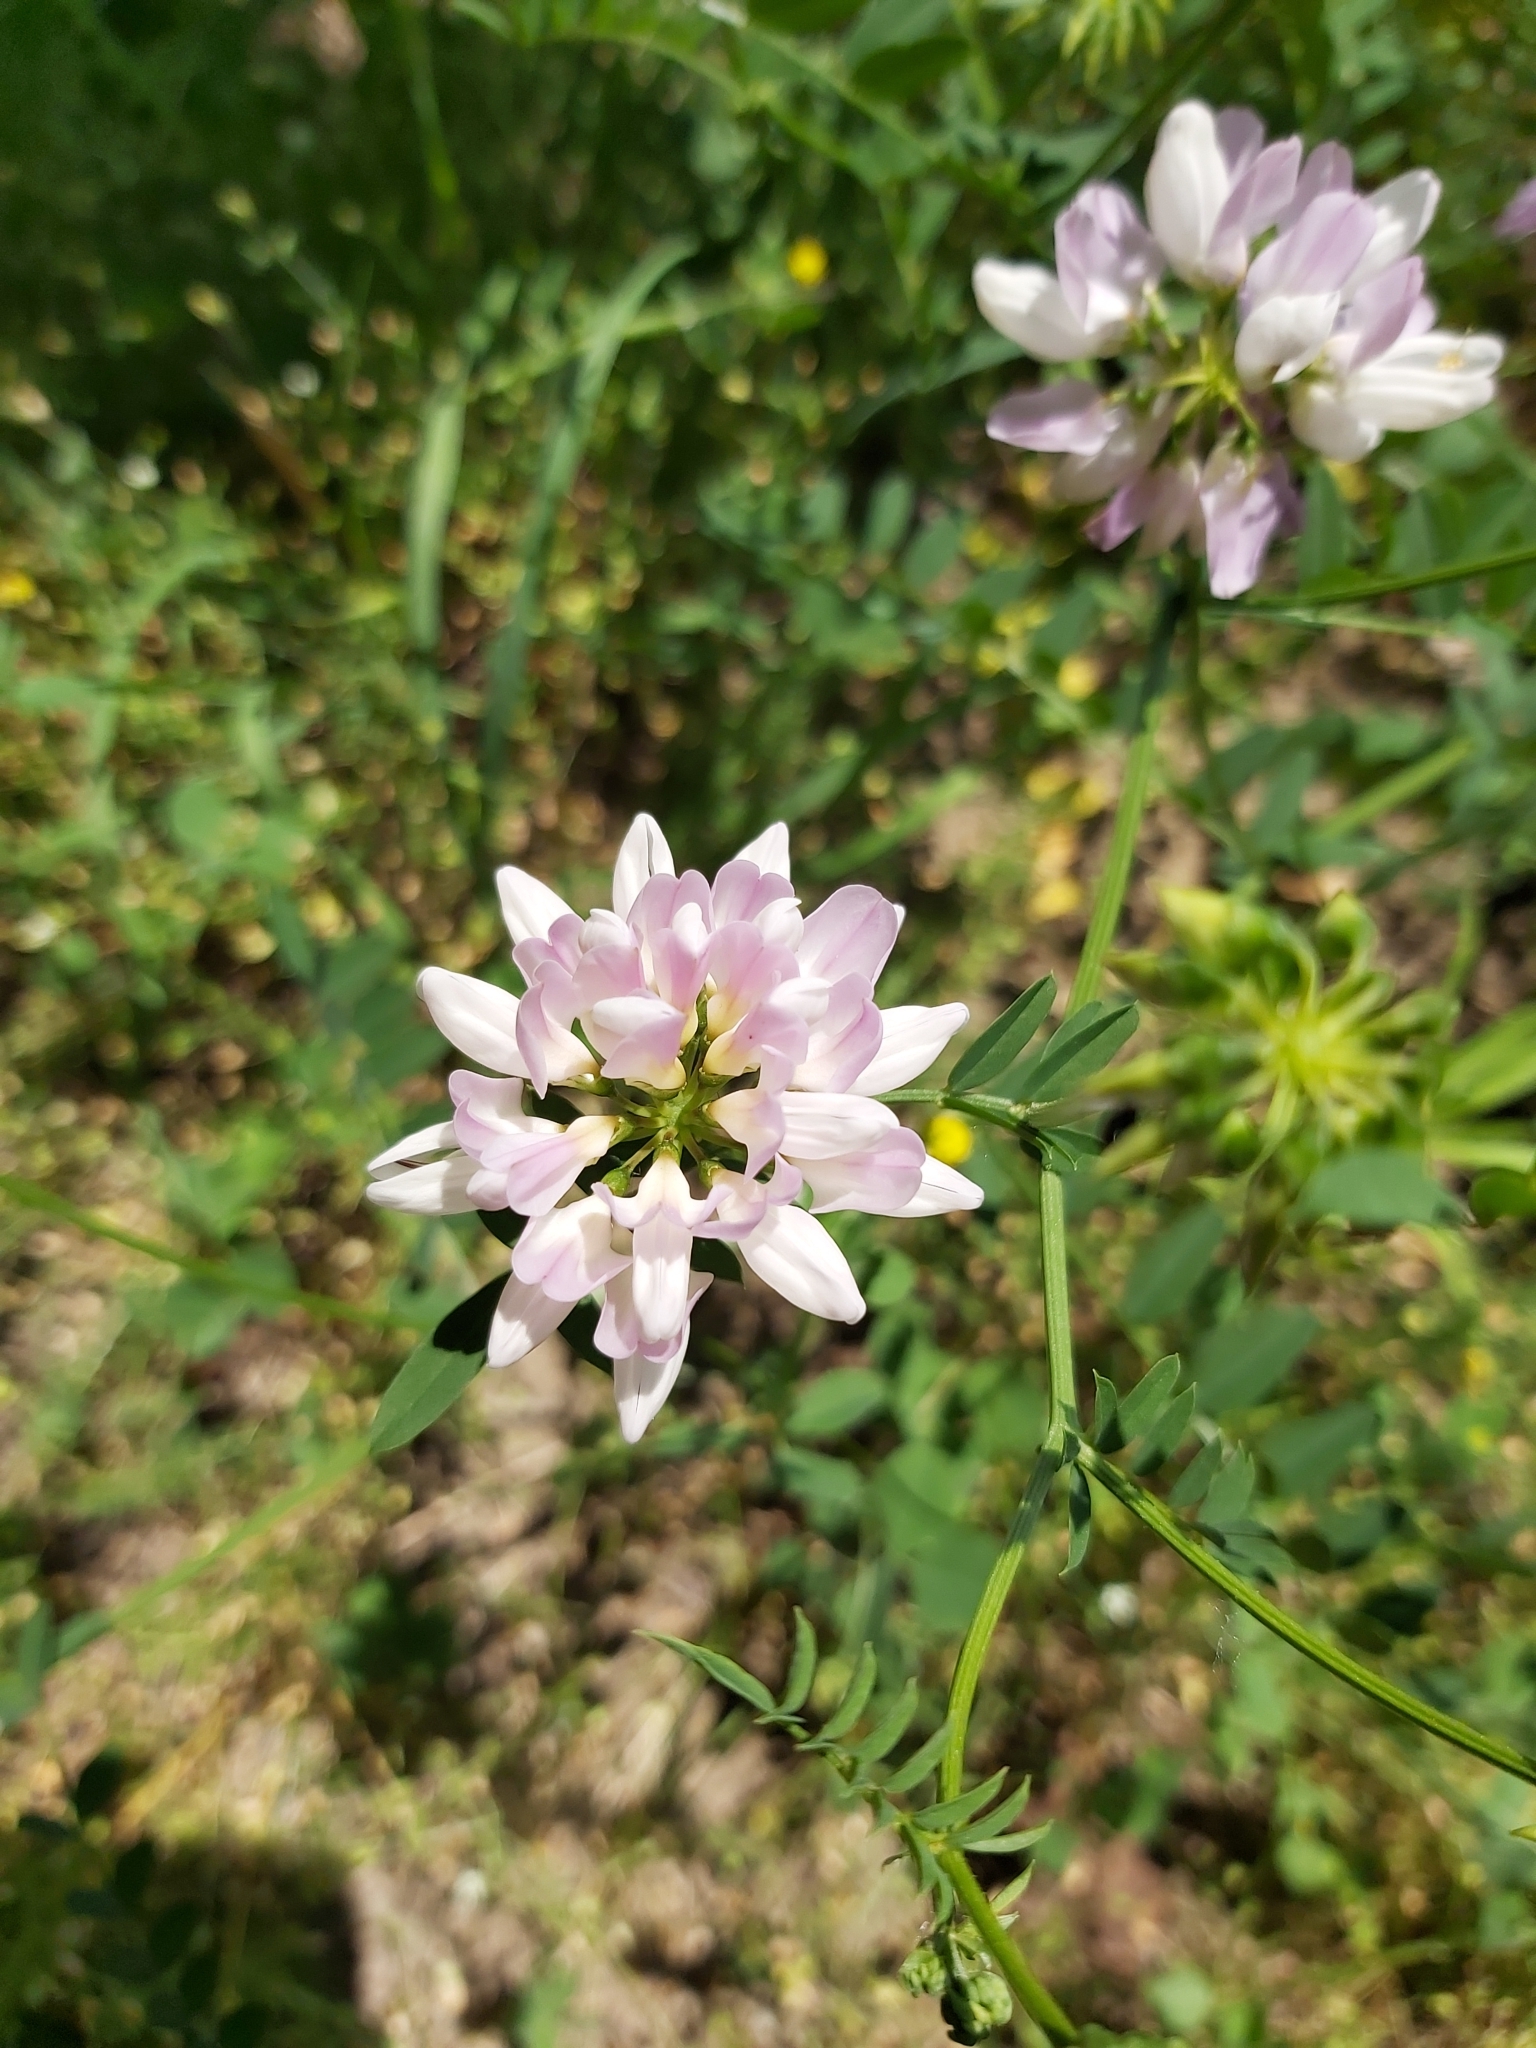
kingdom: Plantae
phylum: Tracheophyta
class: Magnoliopsida
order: Fabales
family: Fabaceae
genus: Coronilla
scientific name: Coronilla varia
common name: Crownvetch
